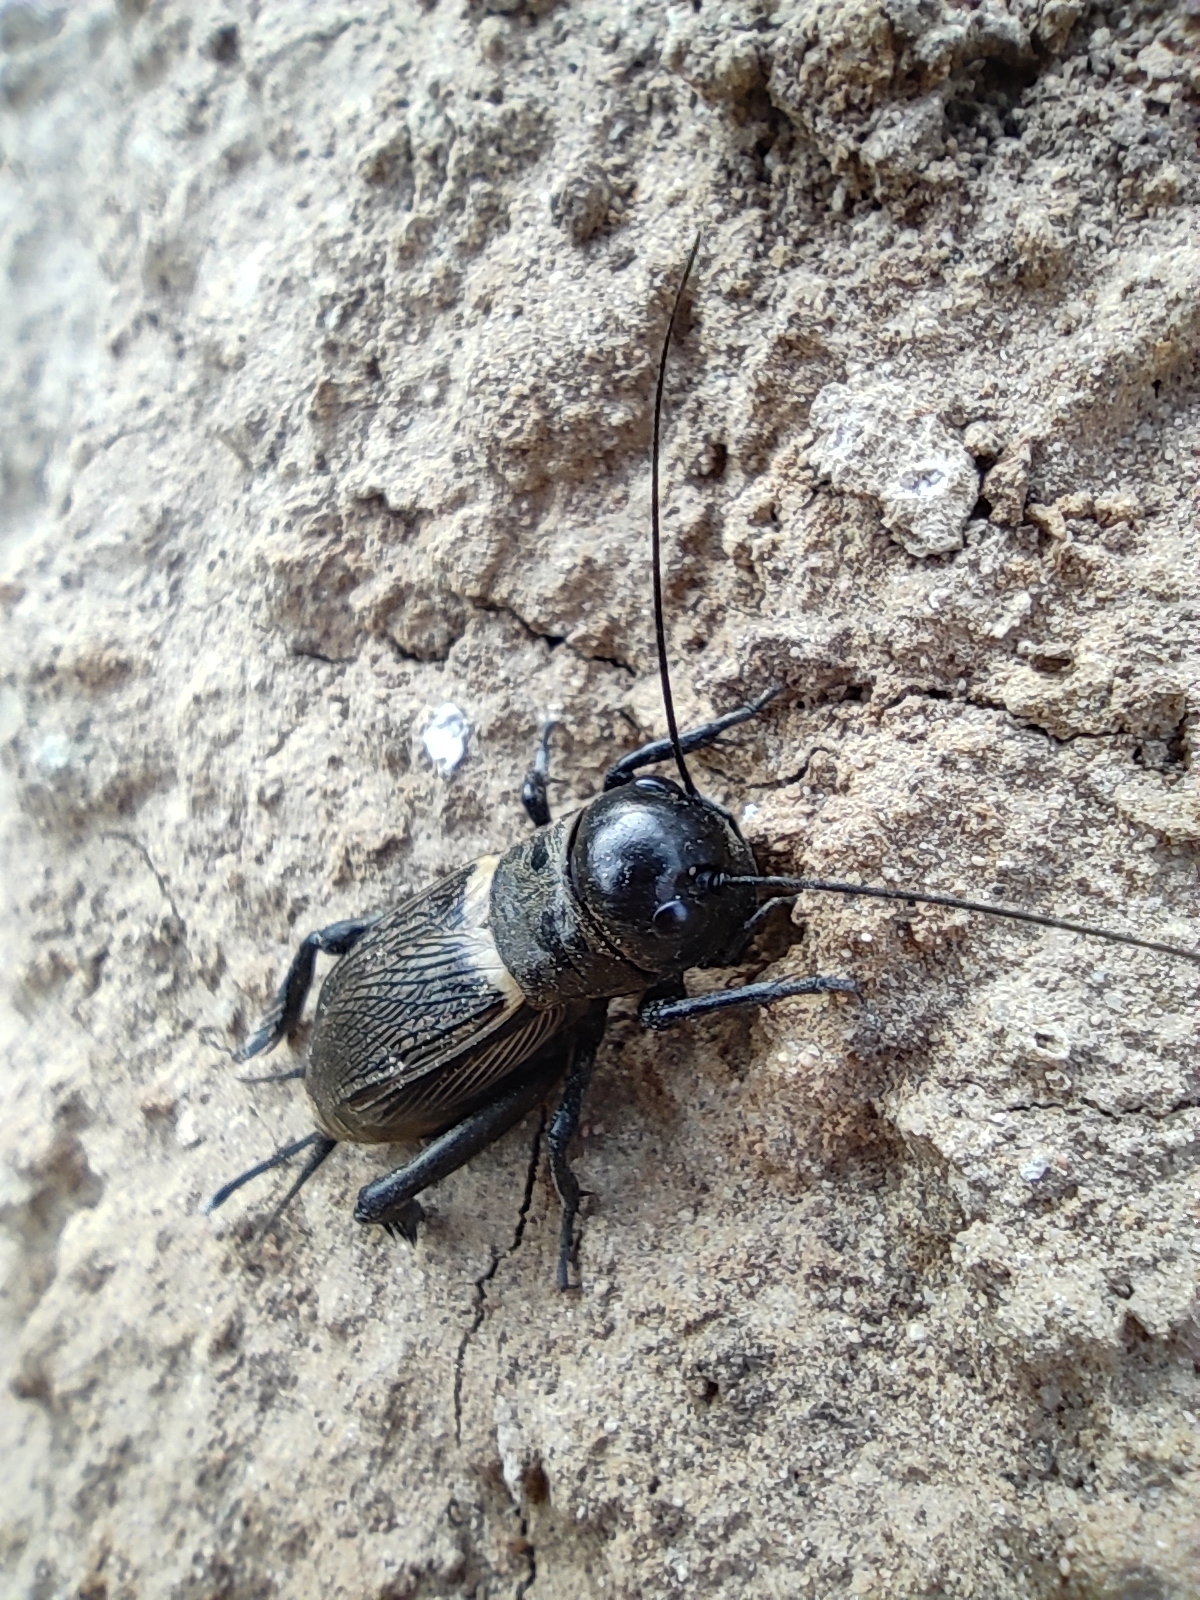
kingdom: Animalia
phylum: Arthropoda
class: Insecta
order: Orthoptera
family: Gryllidae
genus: Gryllus
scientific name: Gryllus campestris
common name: Field cricket
